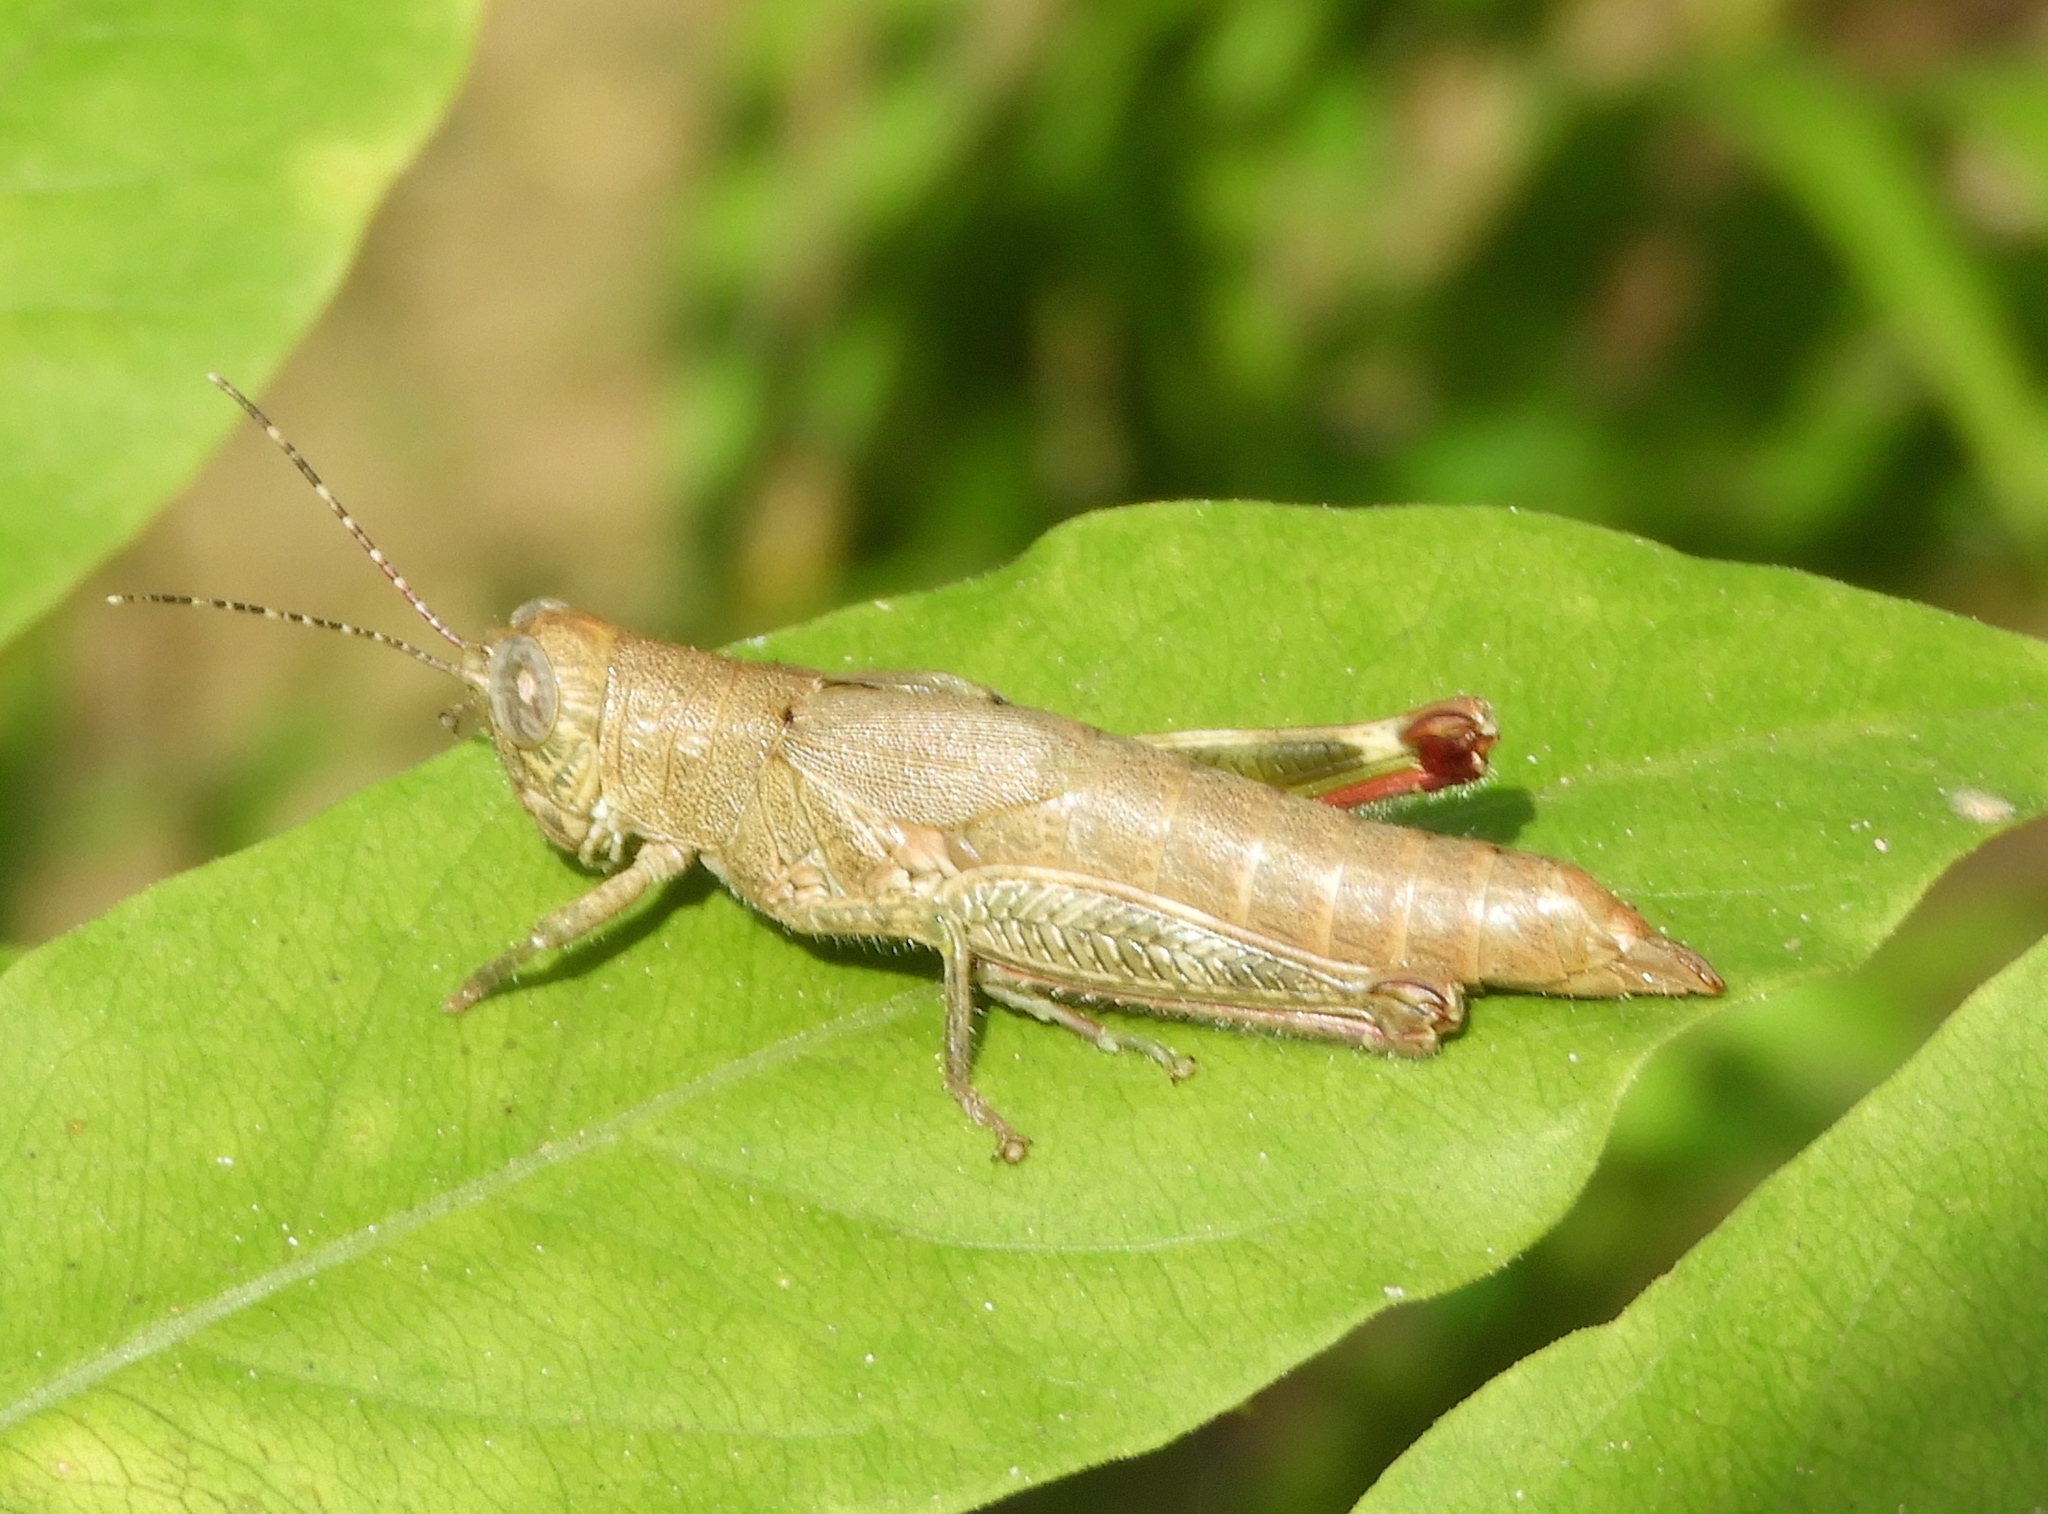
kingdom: Animalia
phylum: Arthropoda
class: Insecta
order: Orthoptera
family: Acrididae
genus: Proctolabus
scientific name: Proctolabus cerciatus
